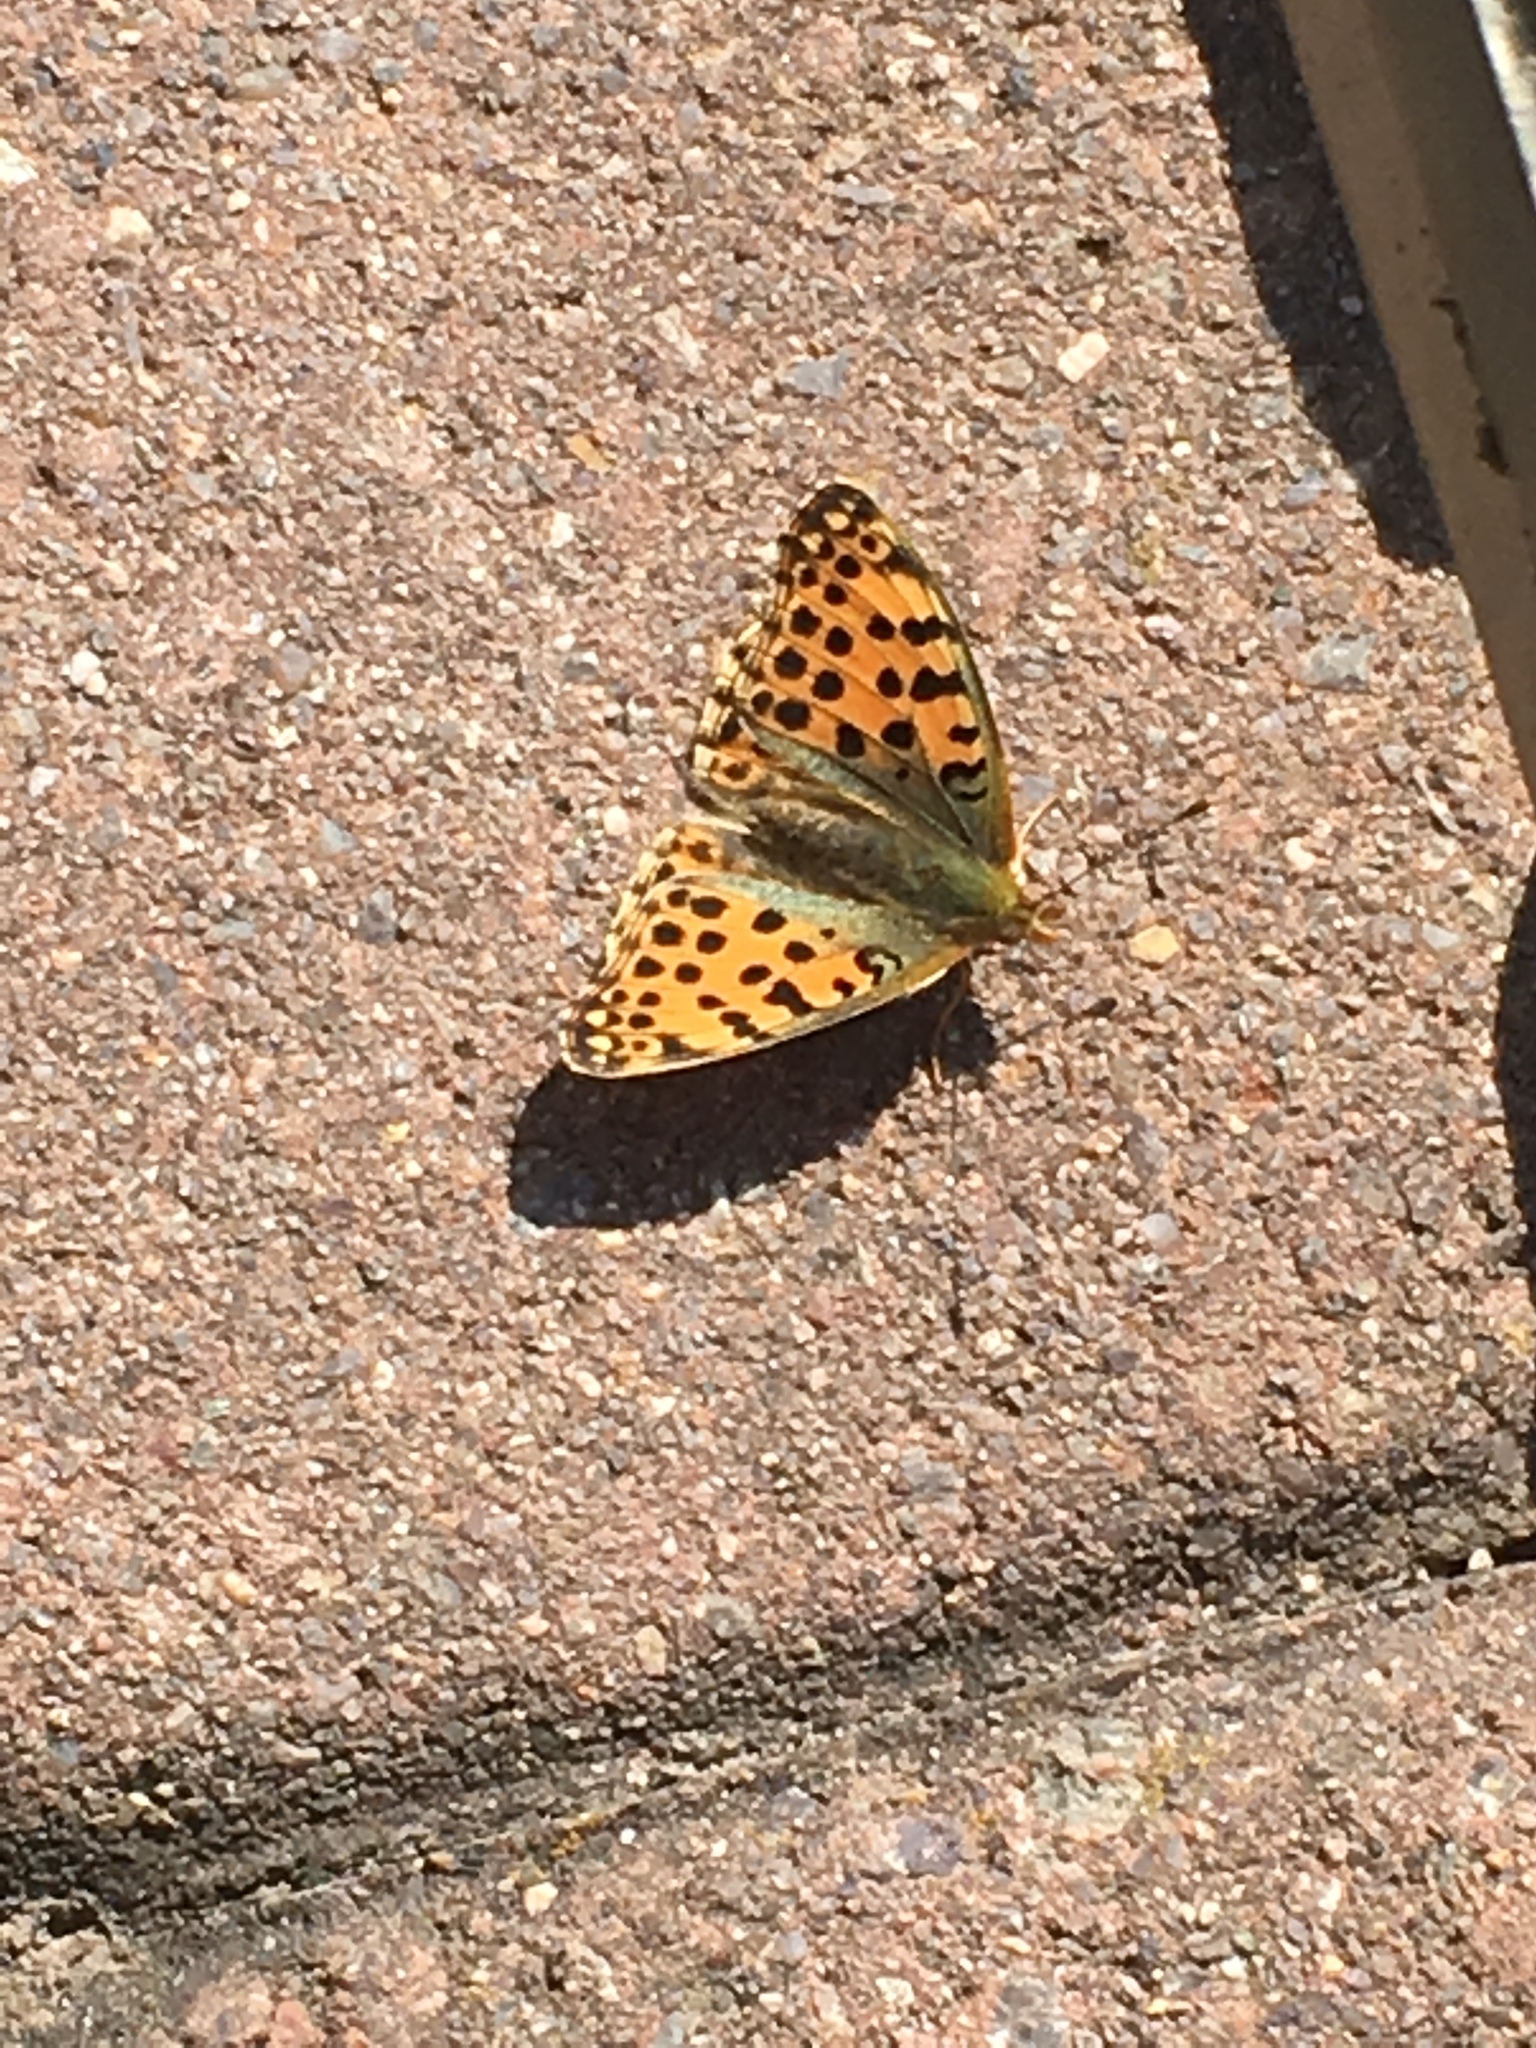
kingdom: Animalia
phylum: Arthropoda
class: Insecta
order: Lepidoptera
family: Nymphalidae
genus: Issoria
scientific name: Issoria lathonia
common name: Queen of spain fritillary
